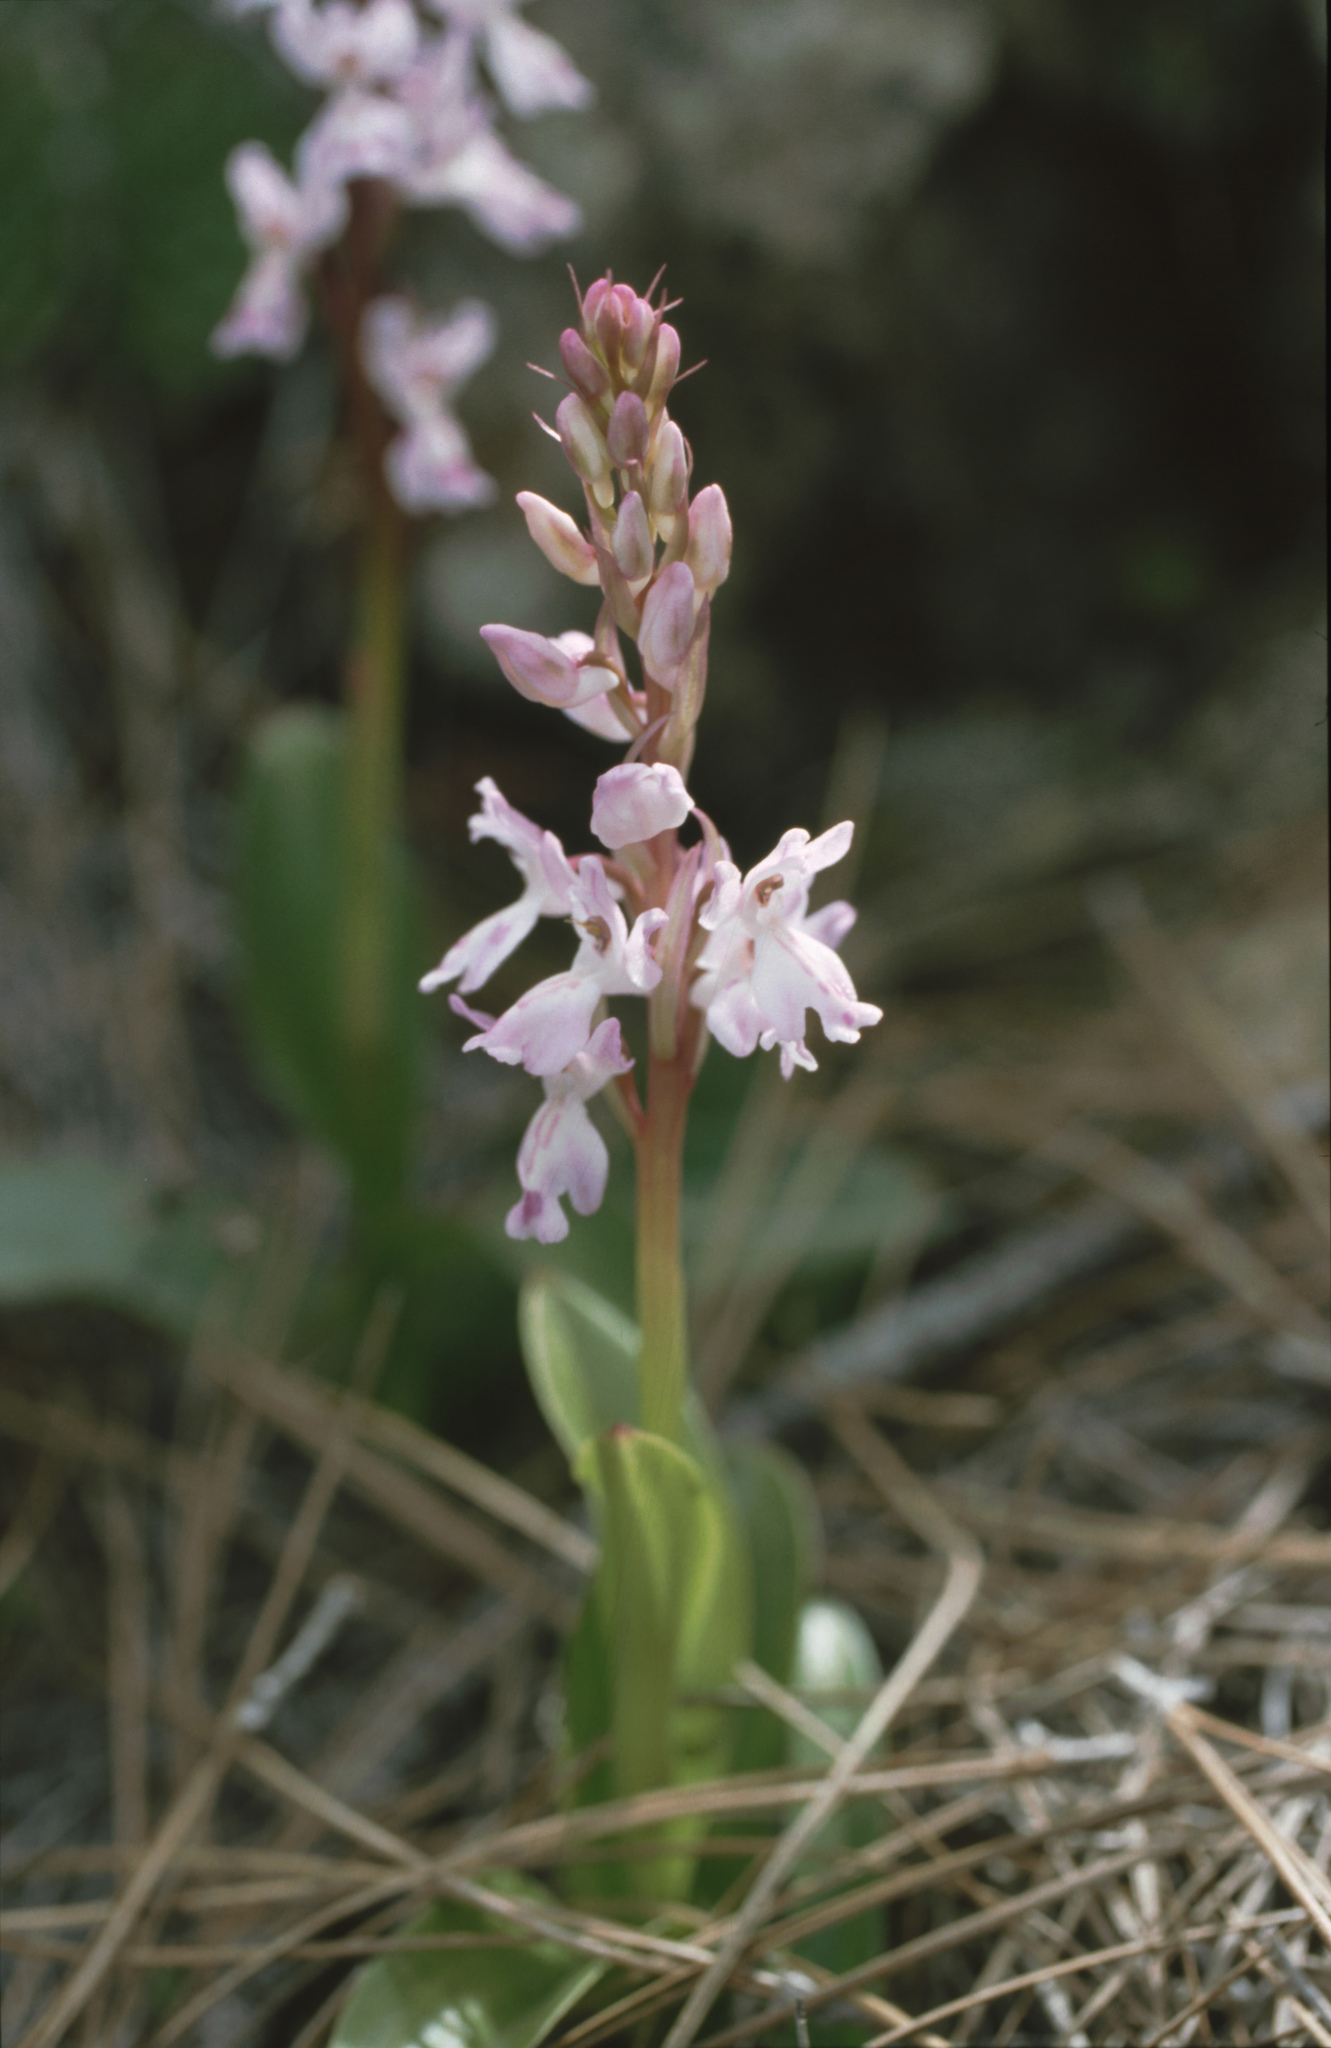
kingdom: Plantae
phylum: Tracheophyta
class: Liliopsida
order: Asparagales
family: Orchidaceae
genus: Orchis
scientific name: Orchis canariensis
